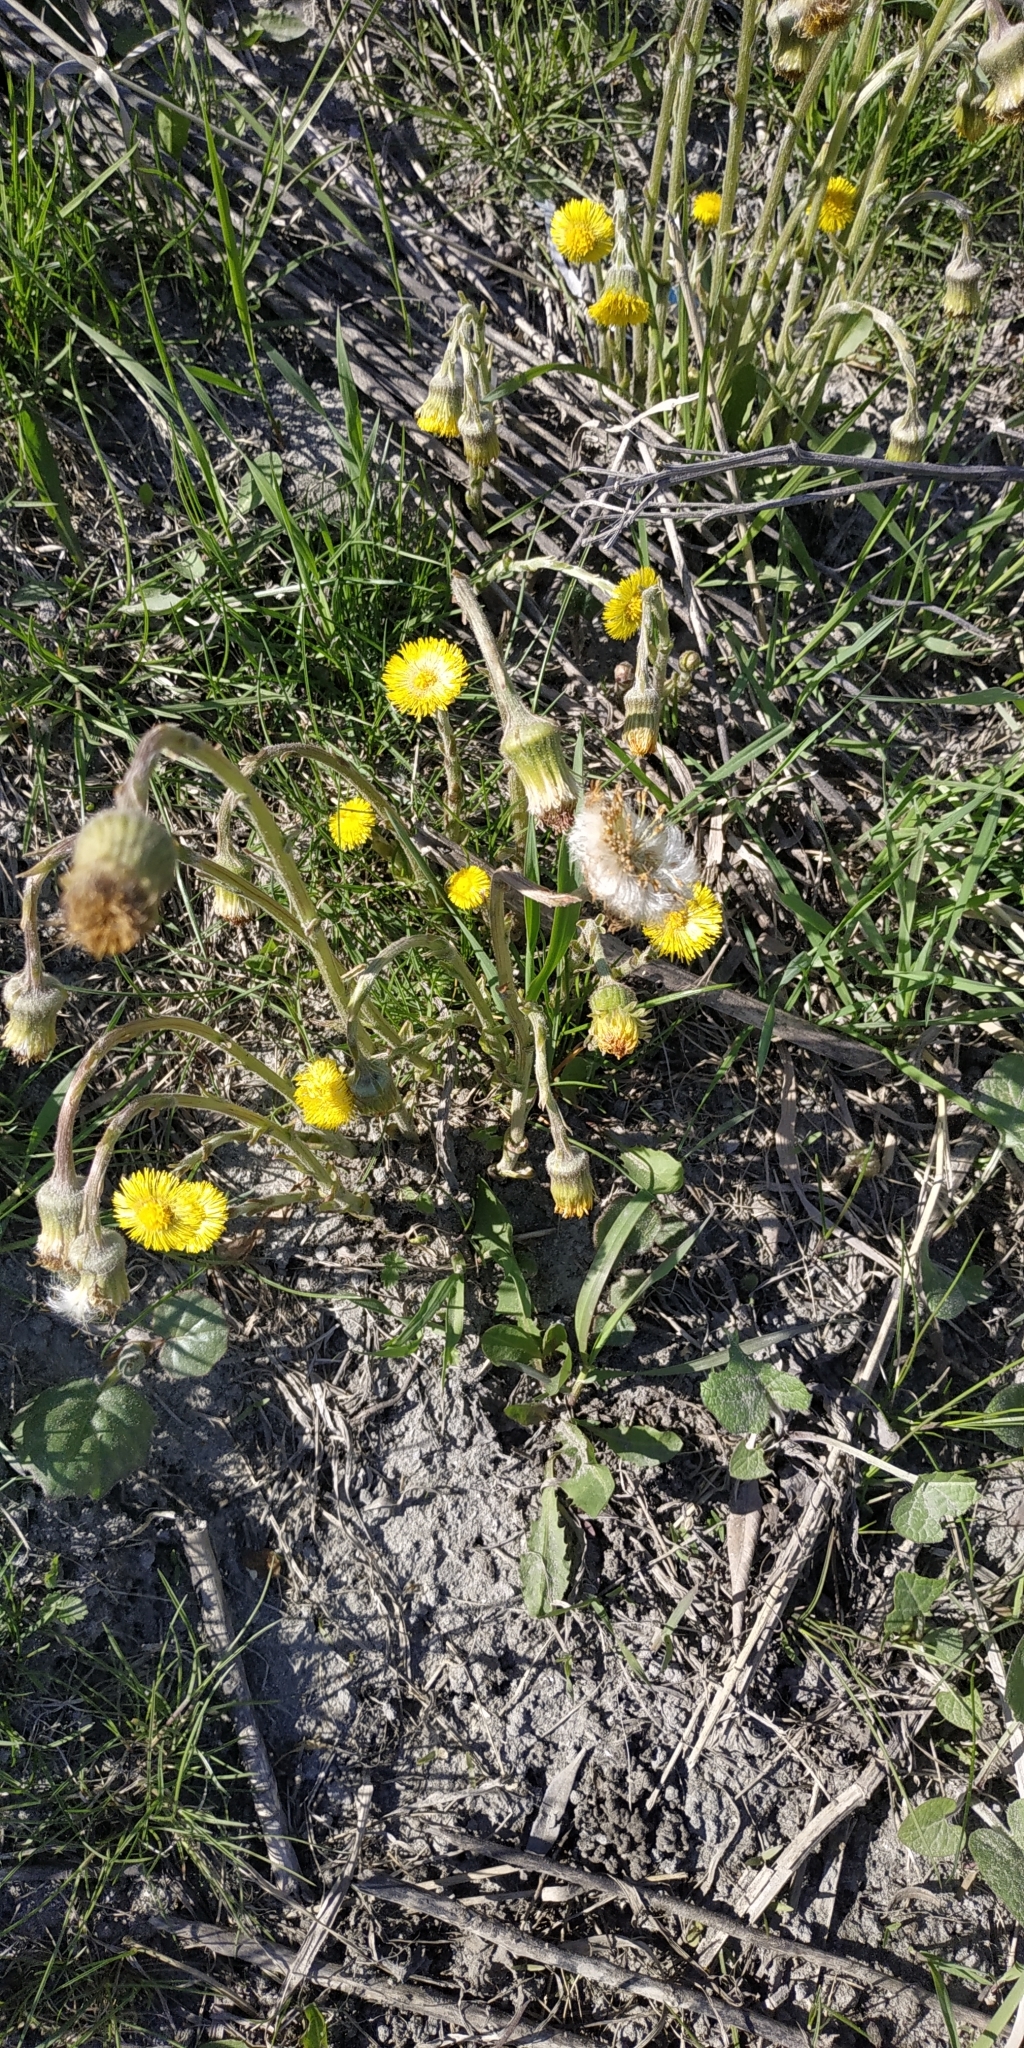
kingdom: Plantae
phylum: Tracheophyta
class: Magnoliopsida
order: Asterales
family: Asteraceae
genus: Tussilago
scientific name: Tussilago farfara
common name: Coltsfoot
